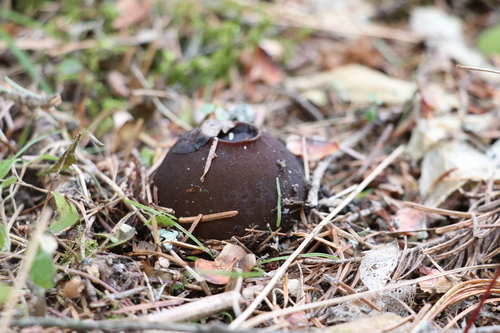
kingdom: Fungi
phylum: Ascomycota
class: Pezizomycetes
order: Pezizales
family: Sarcosomataceae
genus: Sarcosoma
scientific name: Sarcosoma globosum
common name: Charred-pancake cup
